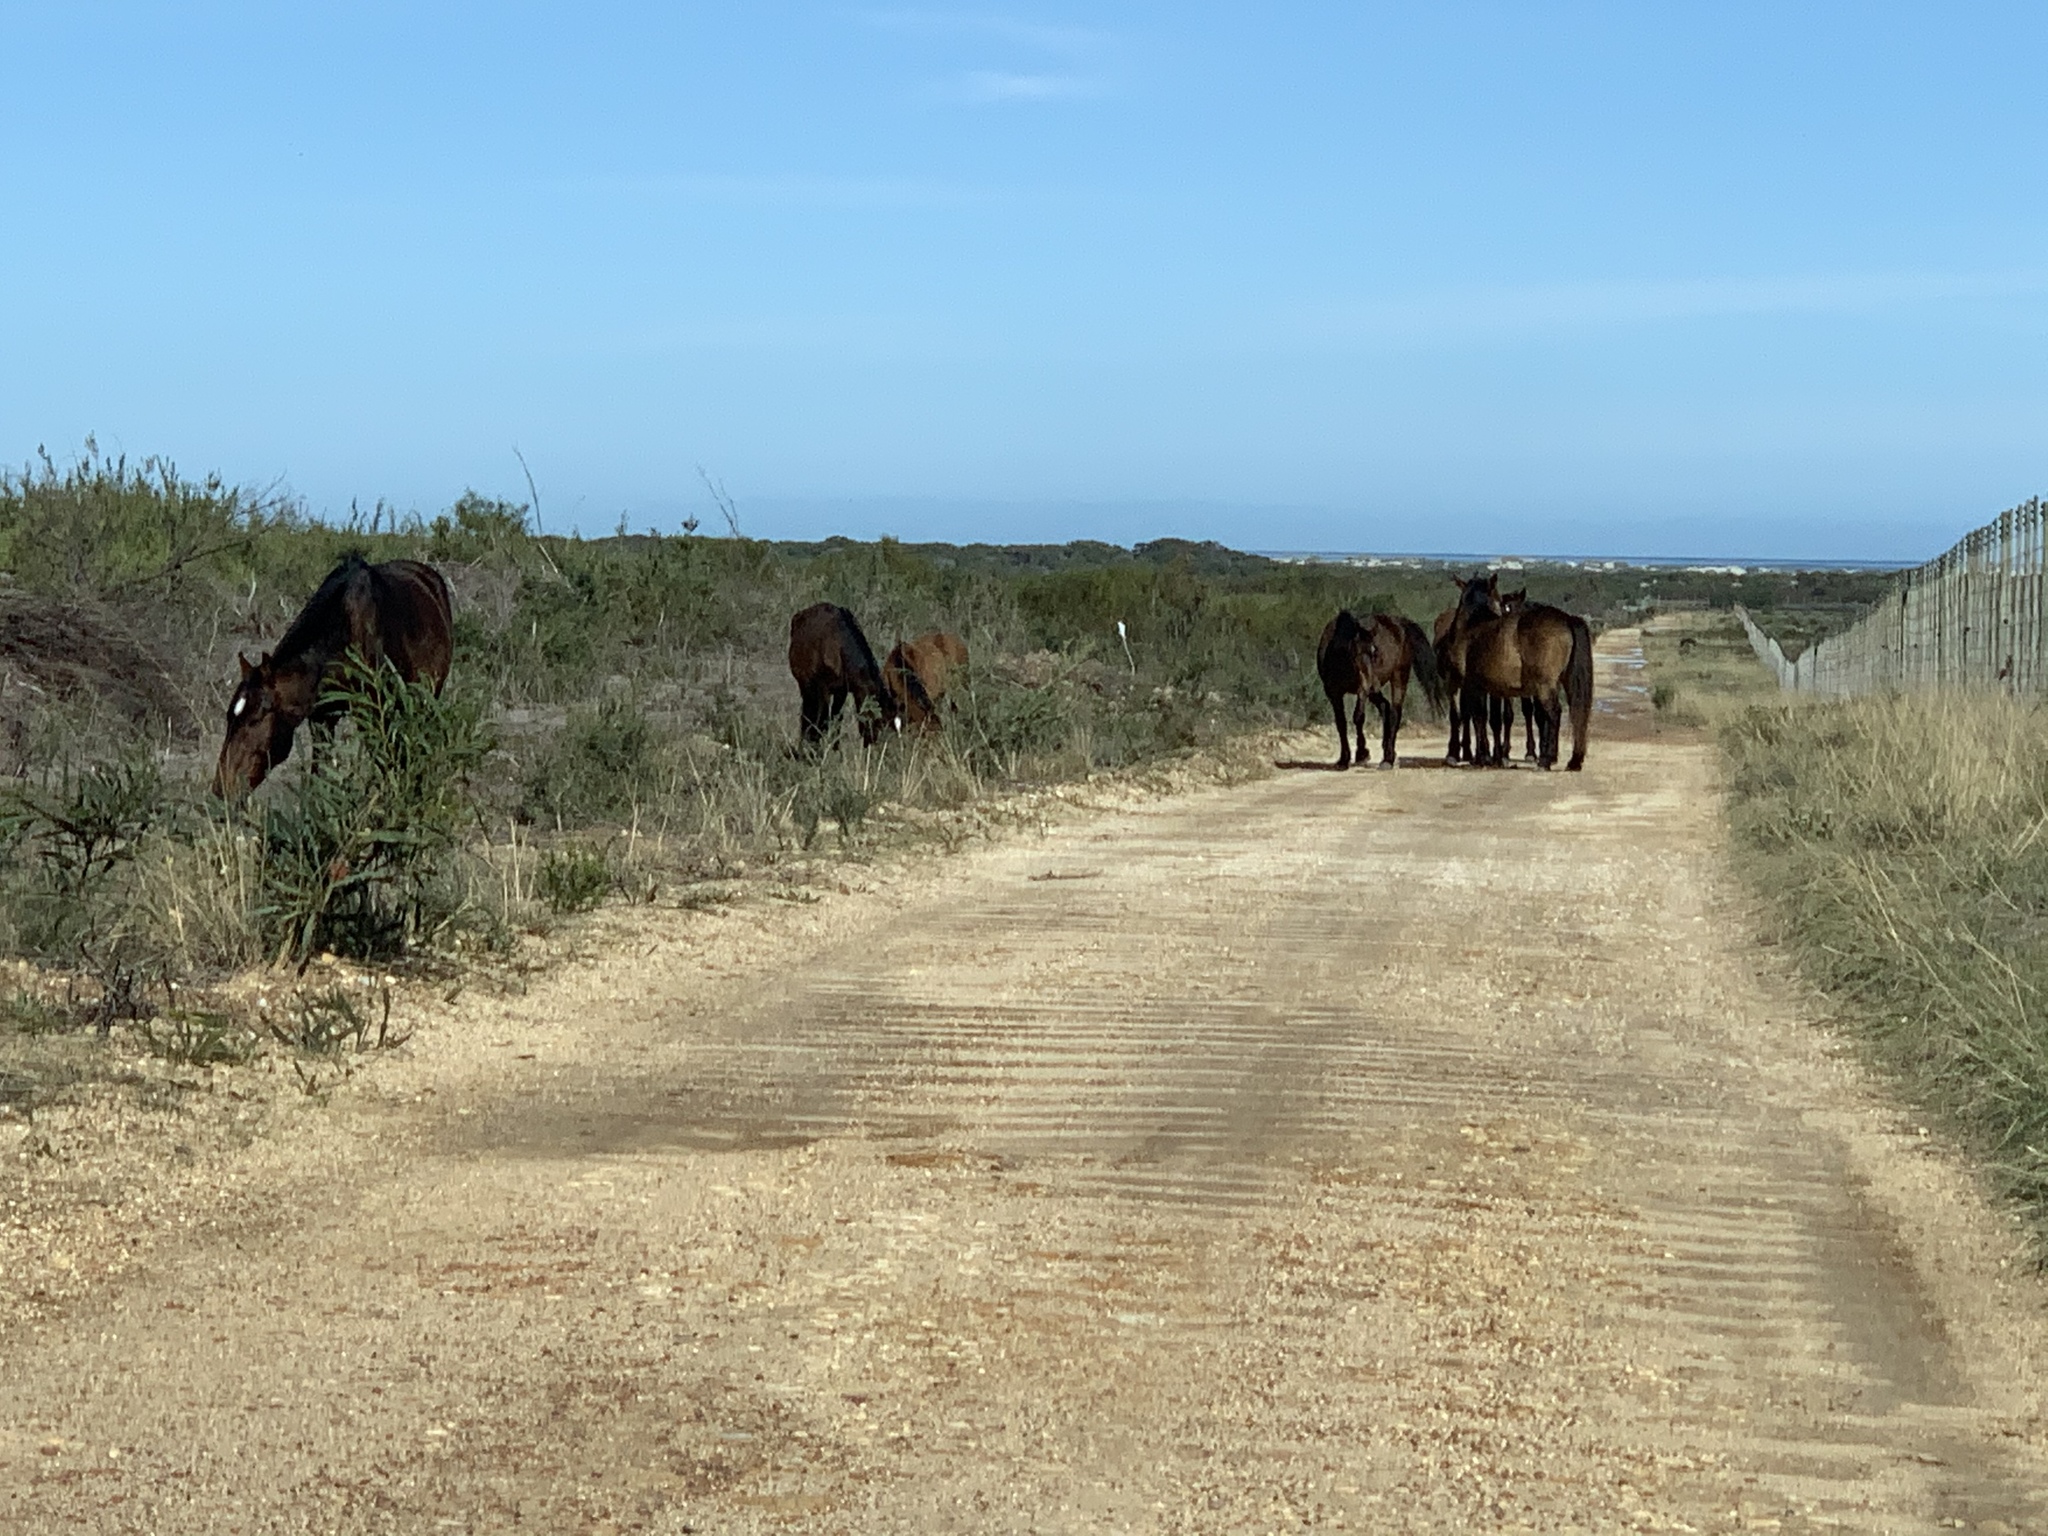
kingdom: Animalia
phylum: Chordata
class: Mammalia
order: Perissodactyla
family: Equidae
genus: Equus
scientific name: Equus caballus
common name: Horse
